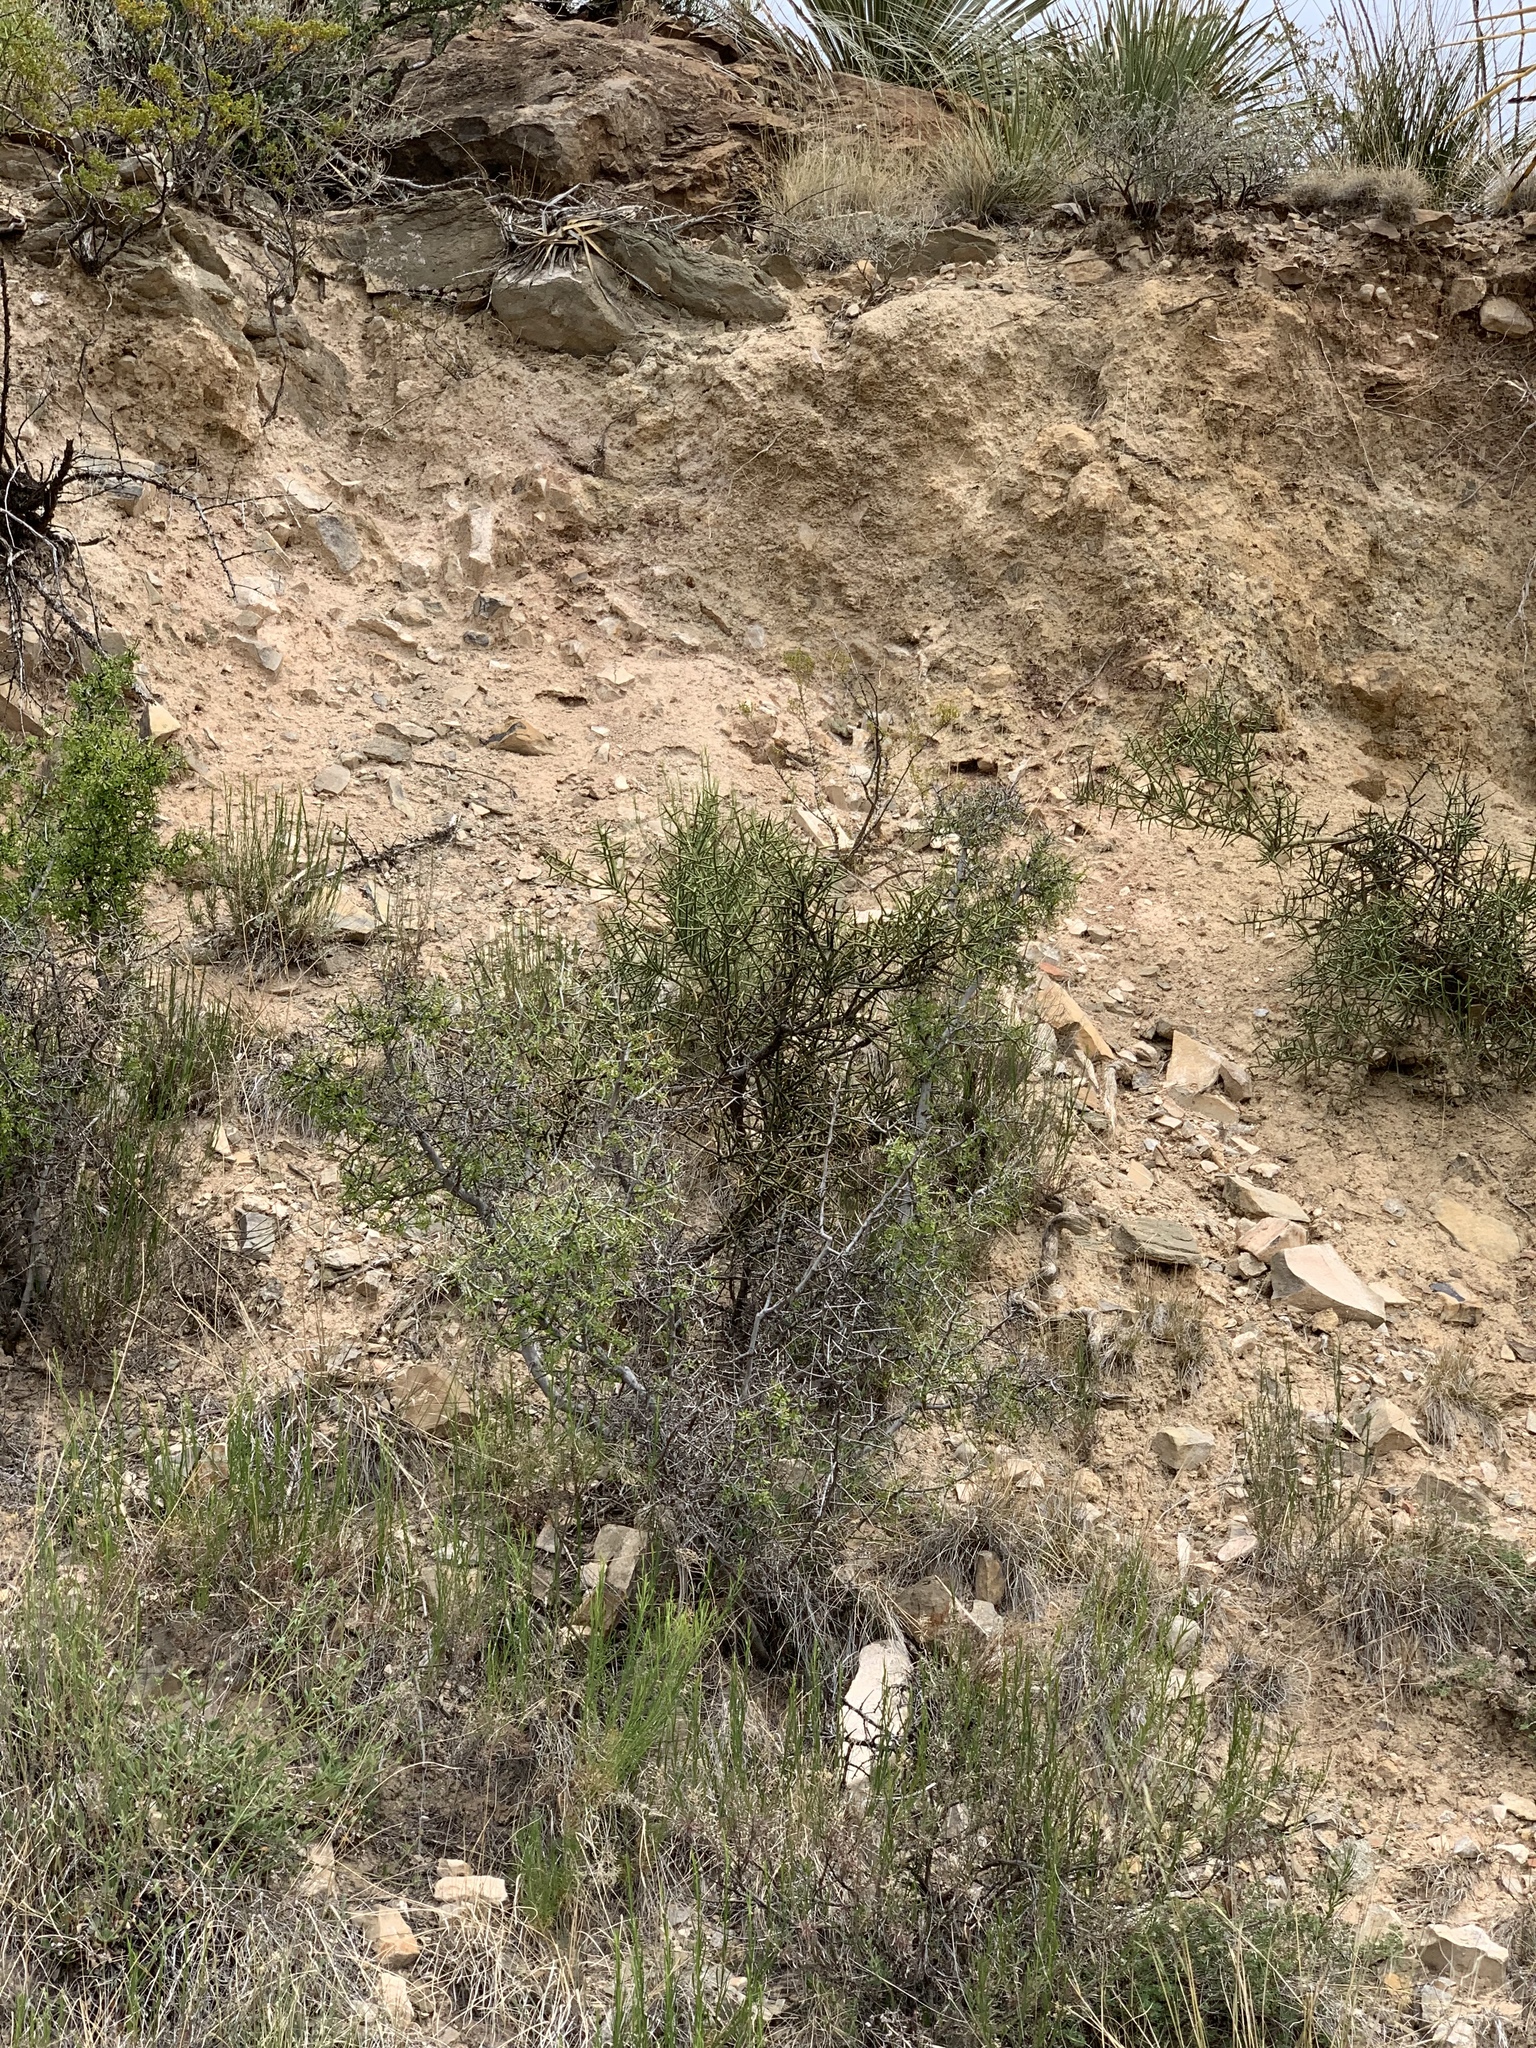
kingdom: Plantae
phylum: Tracheophyta
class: Magnoliopsida
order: Brassicales
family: Koeberliniaceae
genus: Koeberlinia
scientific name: Koeberlinia spinosa
